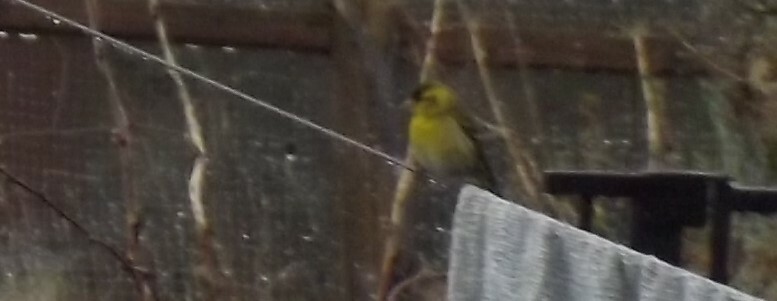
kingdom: Animalia
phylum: Chordata
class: Aves
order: Passeriformes
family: Fringillidae
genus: Spinus
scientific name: Spinus spinus
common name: Eurasian siskin
